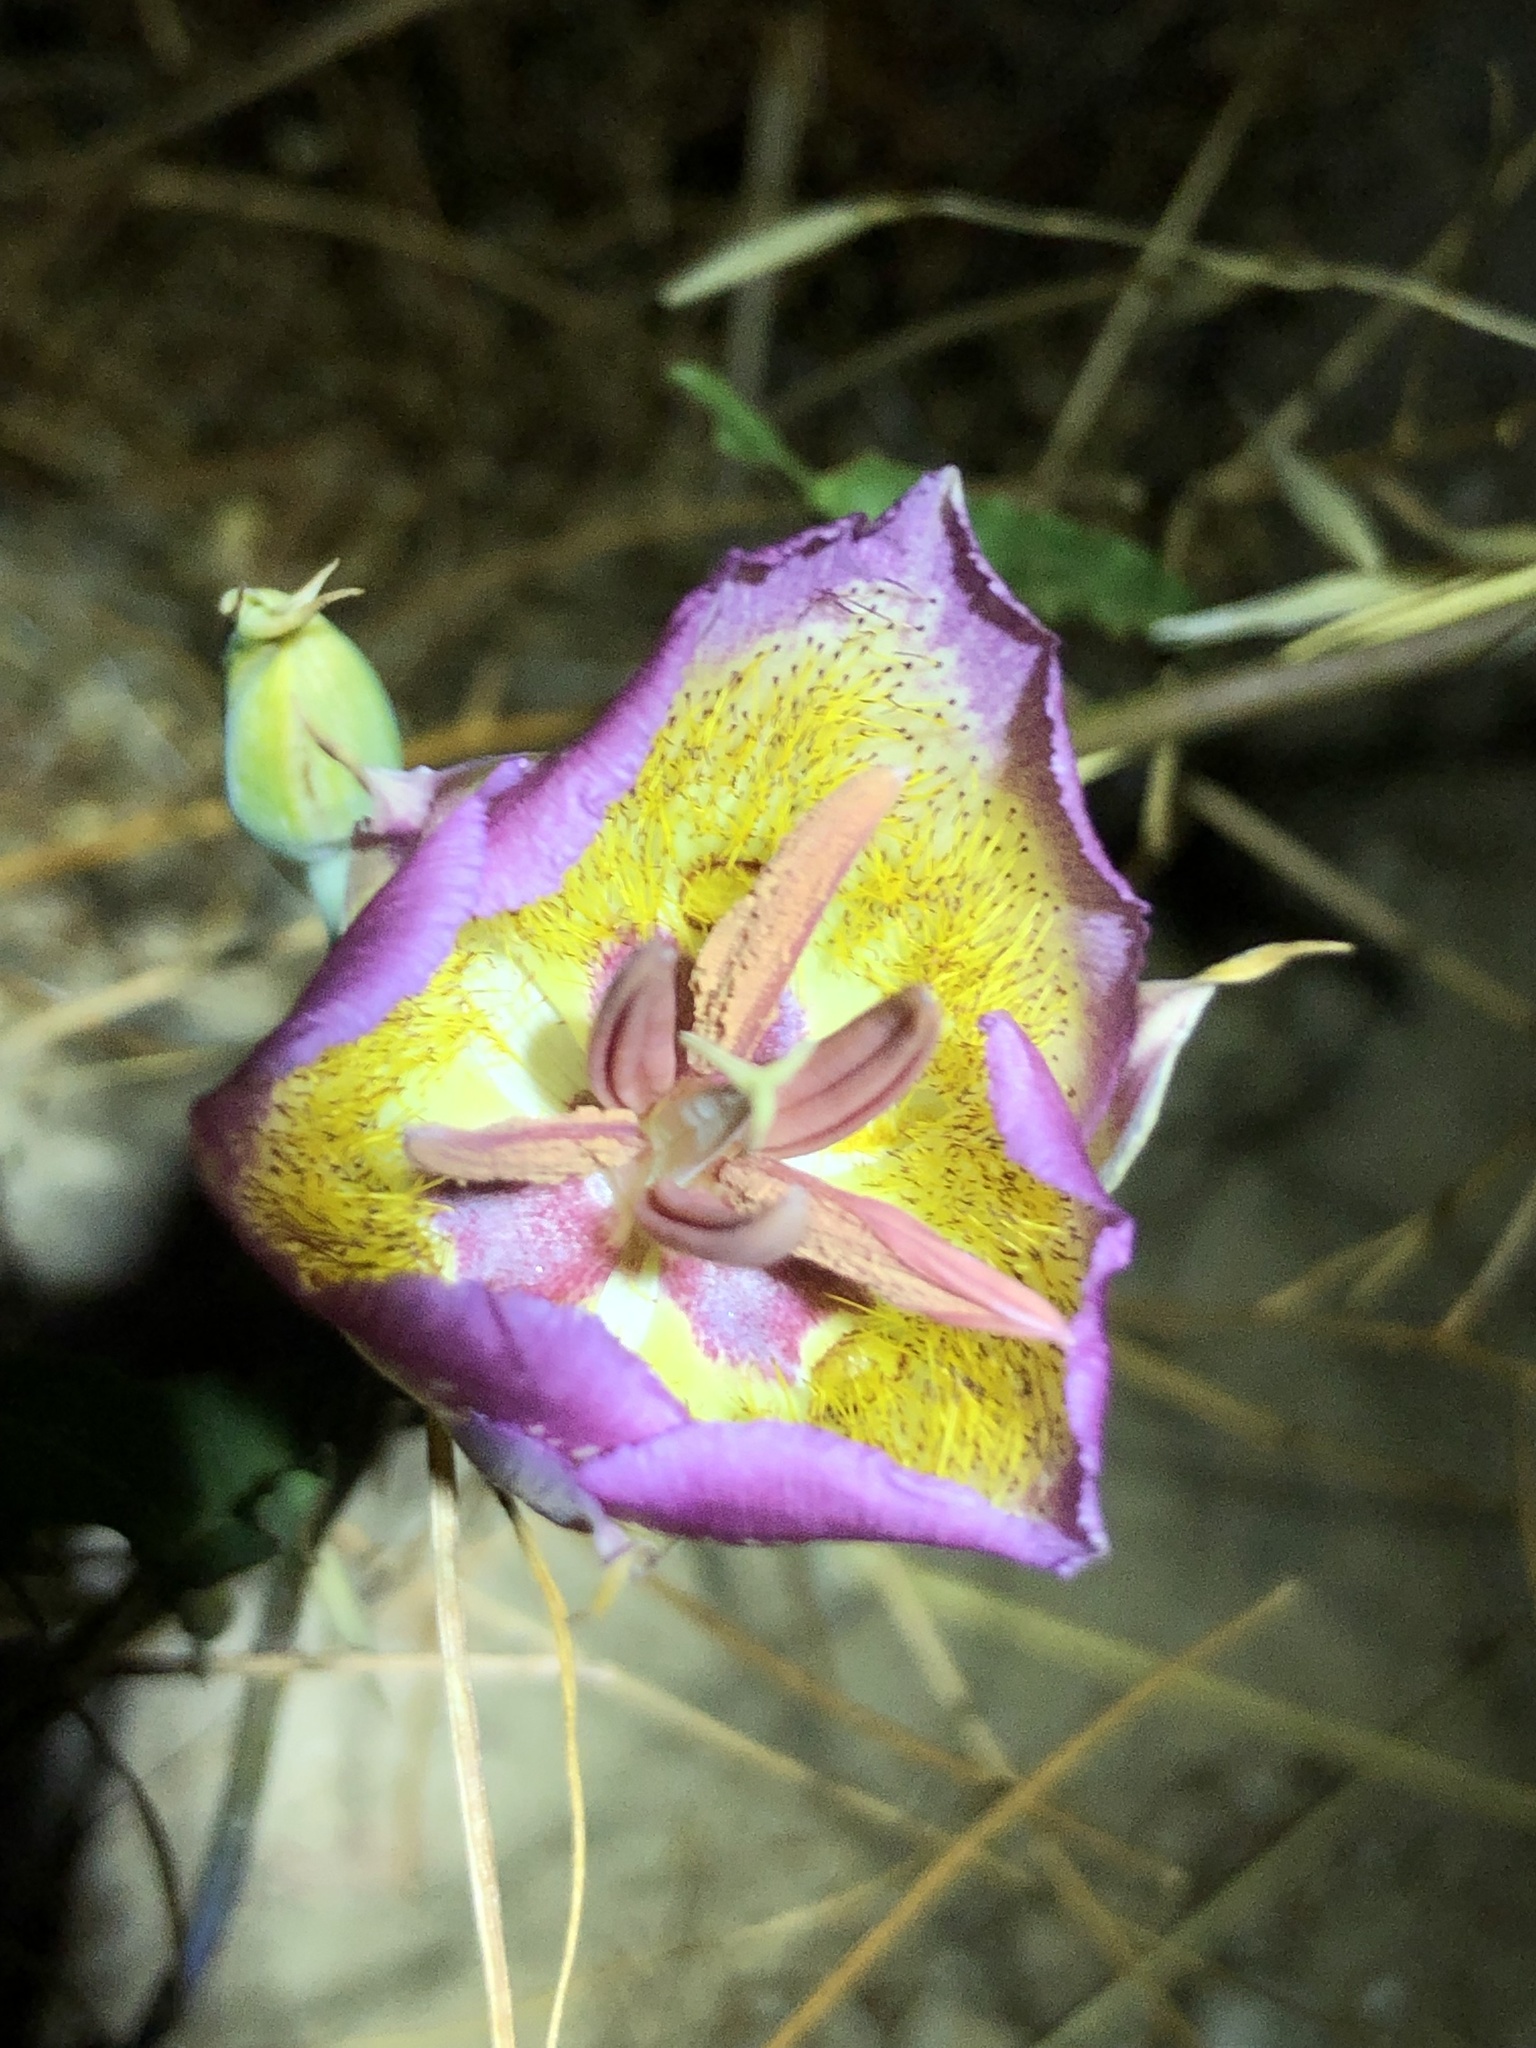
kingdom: Plantae
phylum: Tracheophyta
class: Liliopsida
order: Liliales
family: Liliaceae
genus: Calochortus
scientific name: Calochortus plummerae
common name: Plummer's mariposa-lily
